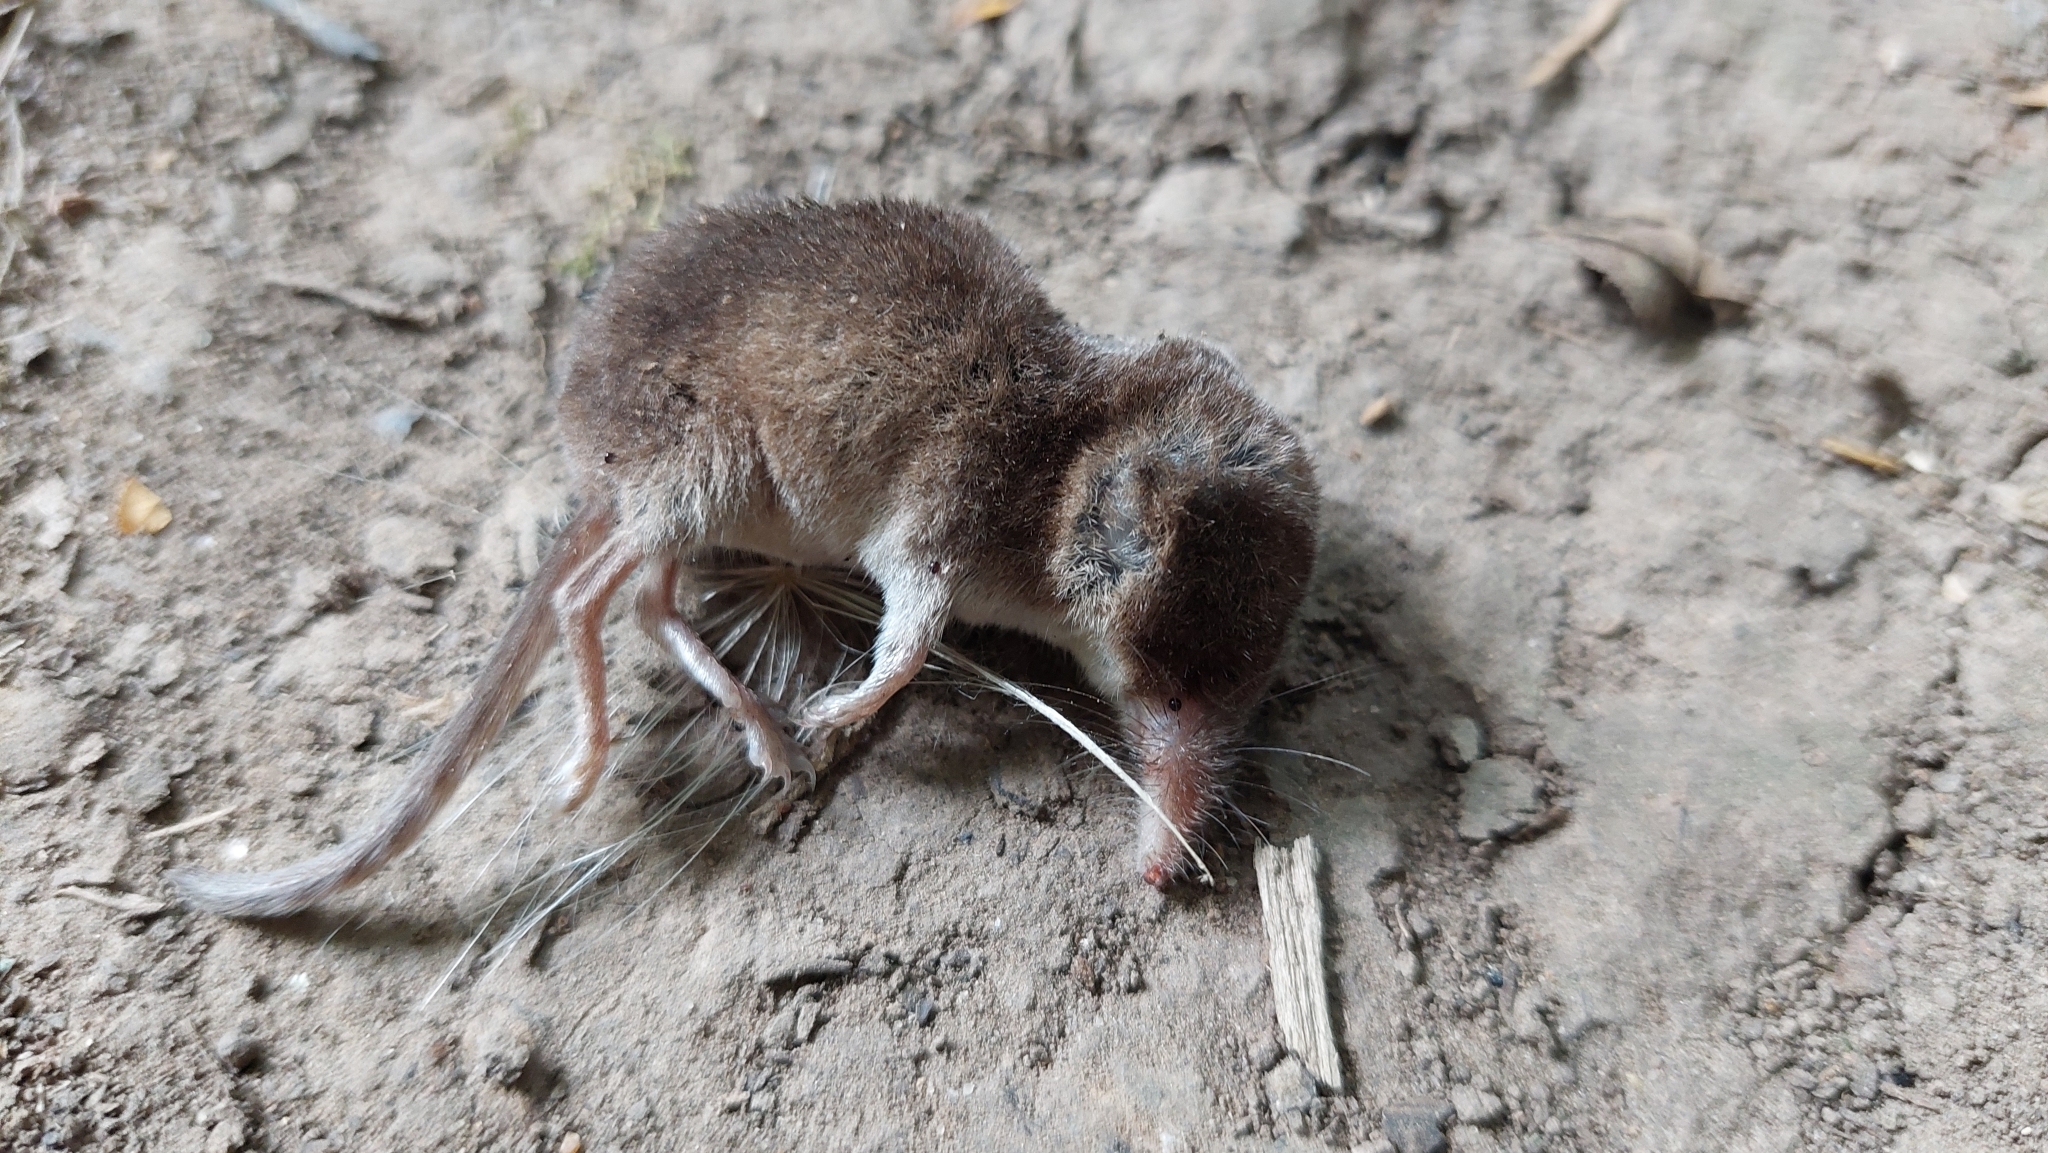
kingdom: Animalia
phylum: Chordata
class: Mammalia
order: Soricomorpha
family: Soricidae
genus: Sorex
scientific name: Sorex araneus
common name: Common shrew
